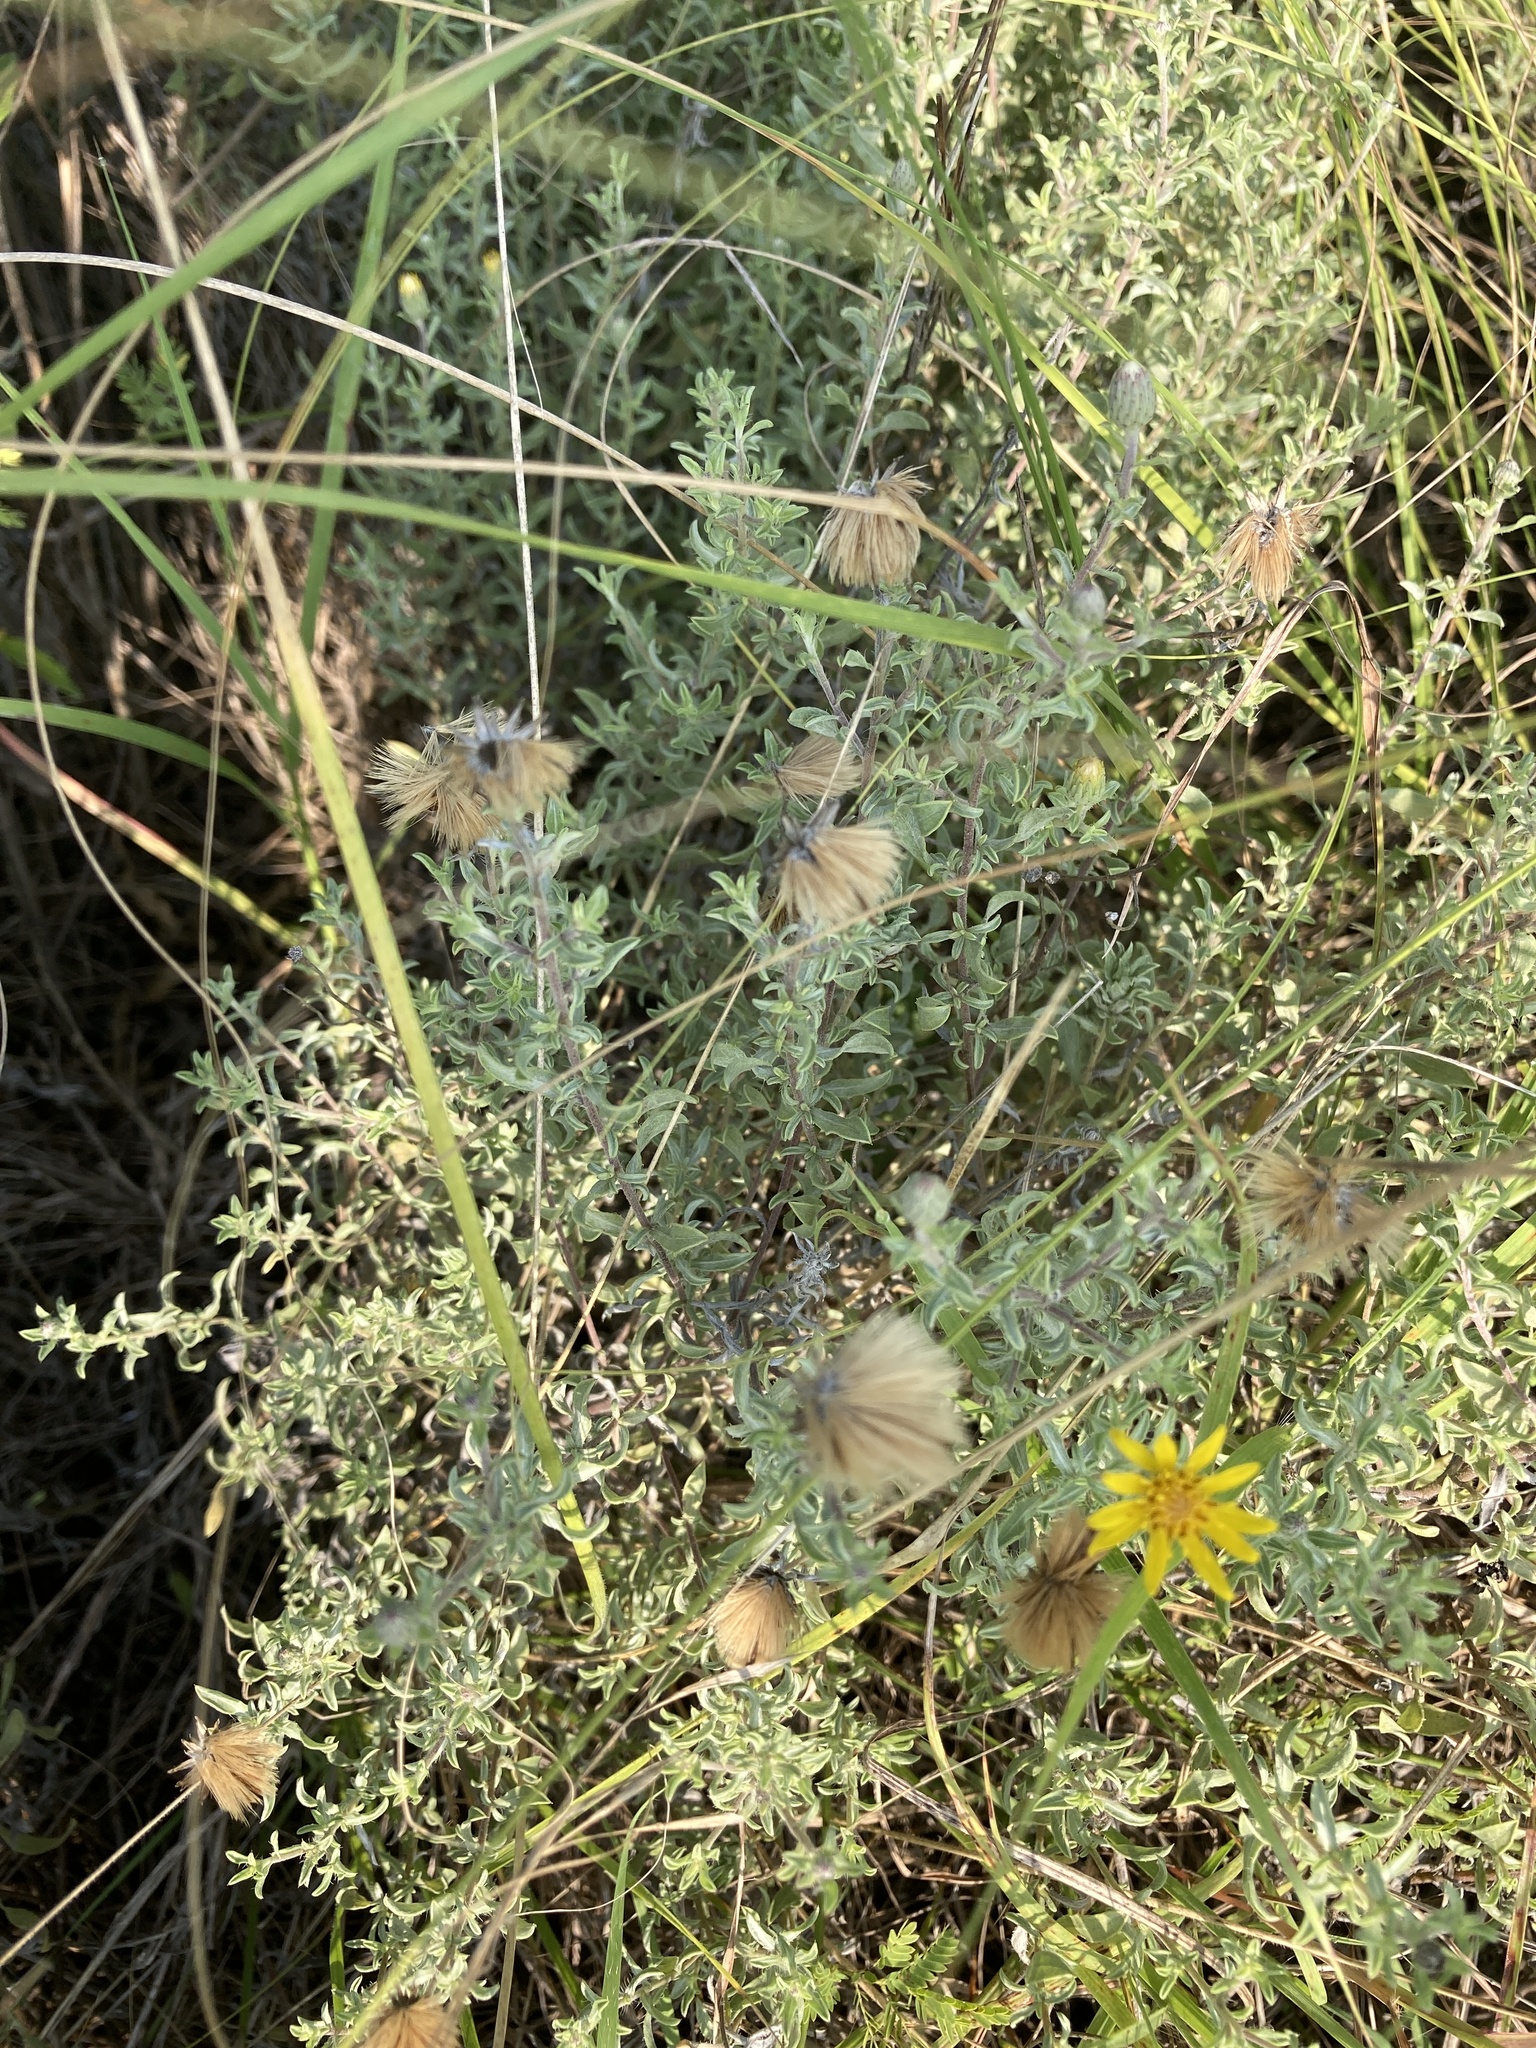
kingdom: Plantae
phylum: Tracheophyta
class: Magnoliopsida
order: Asterales
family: Asteraceae
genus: Heterotheca
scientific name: Heterotheca canescens
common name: Hoary golden-aster
